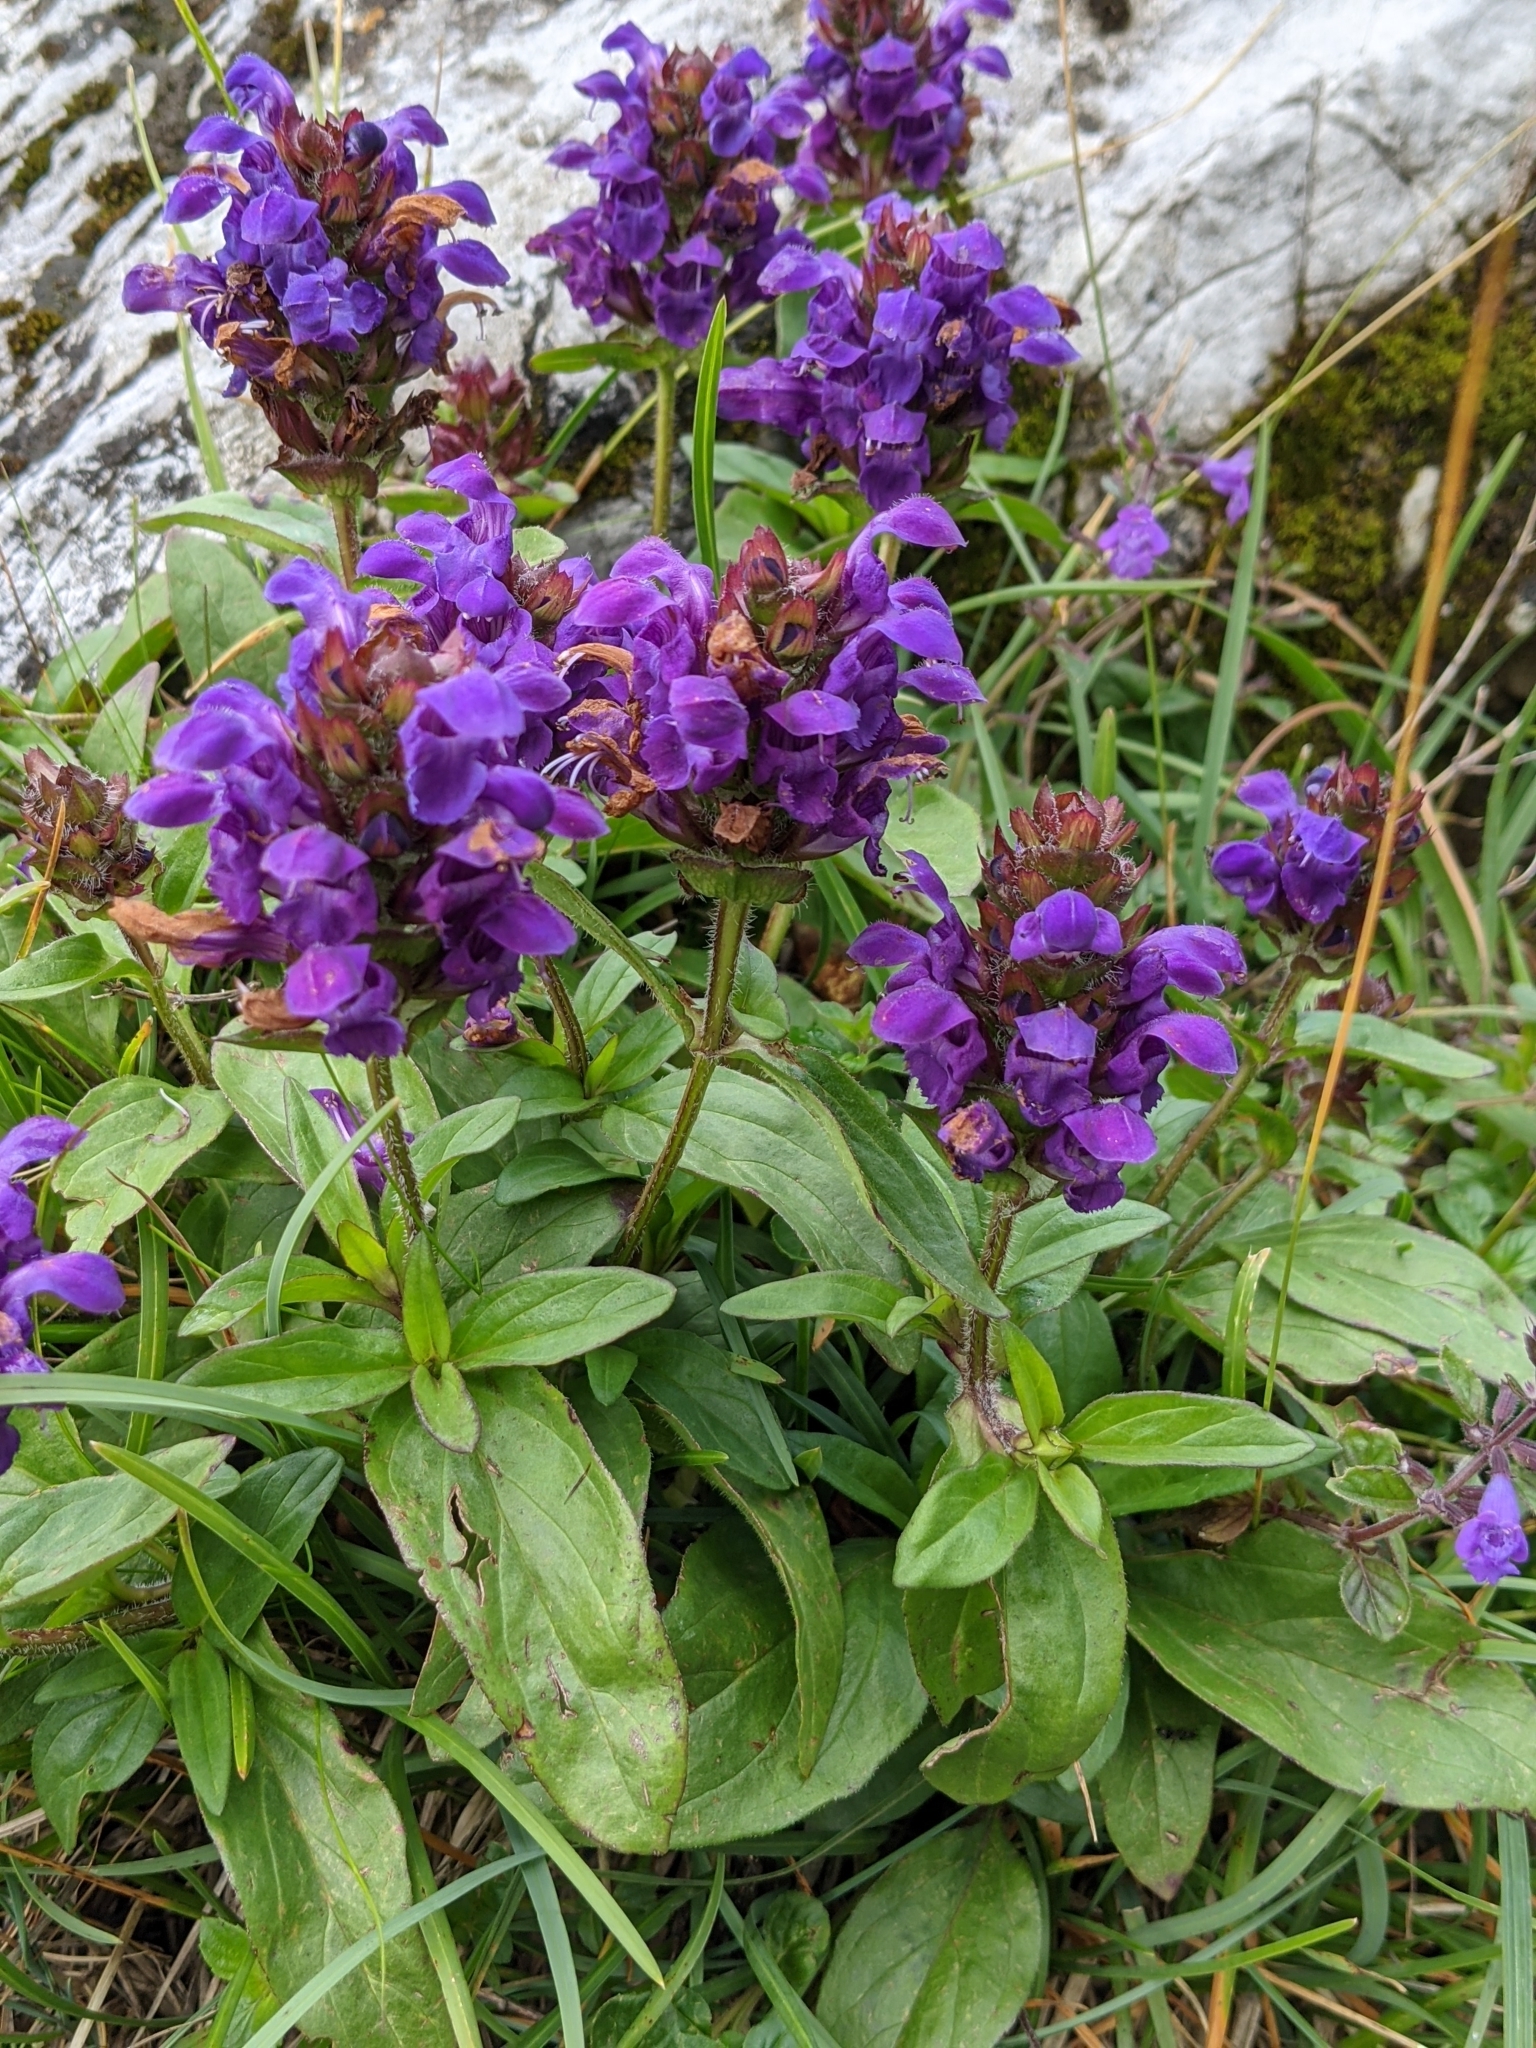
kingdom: Plantae
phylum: Tracheophyta
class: Magnoliopsida
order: Lamiales
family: Lamiaceae
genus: Prunella
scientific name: Prunella grandiflora
